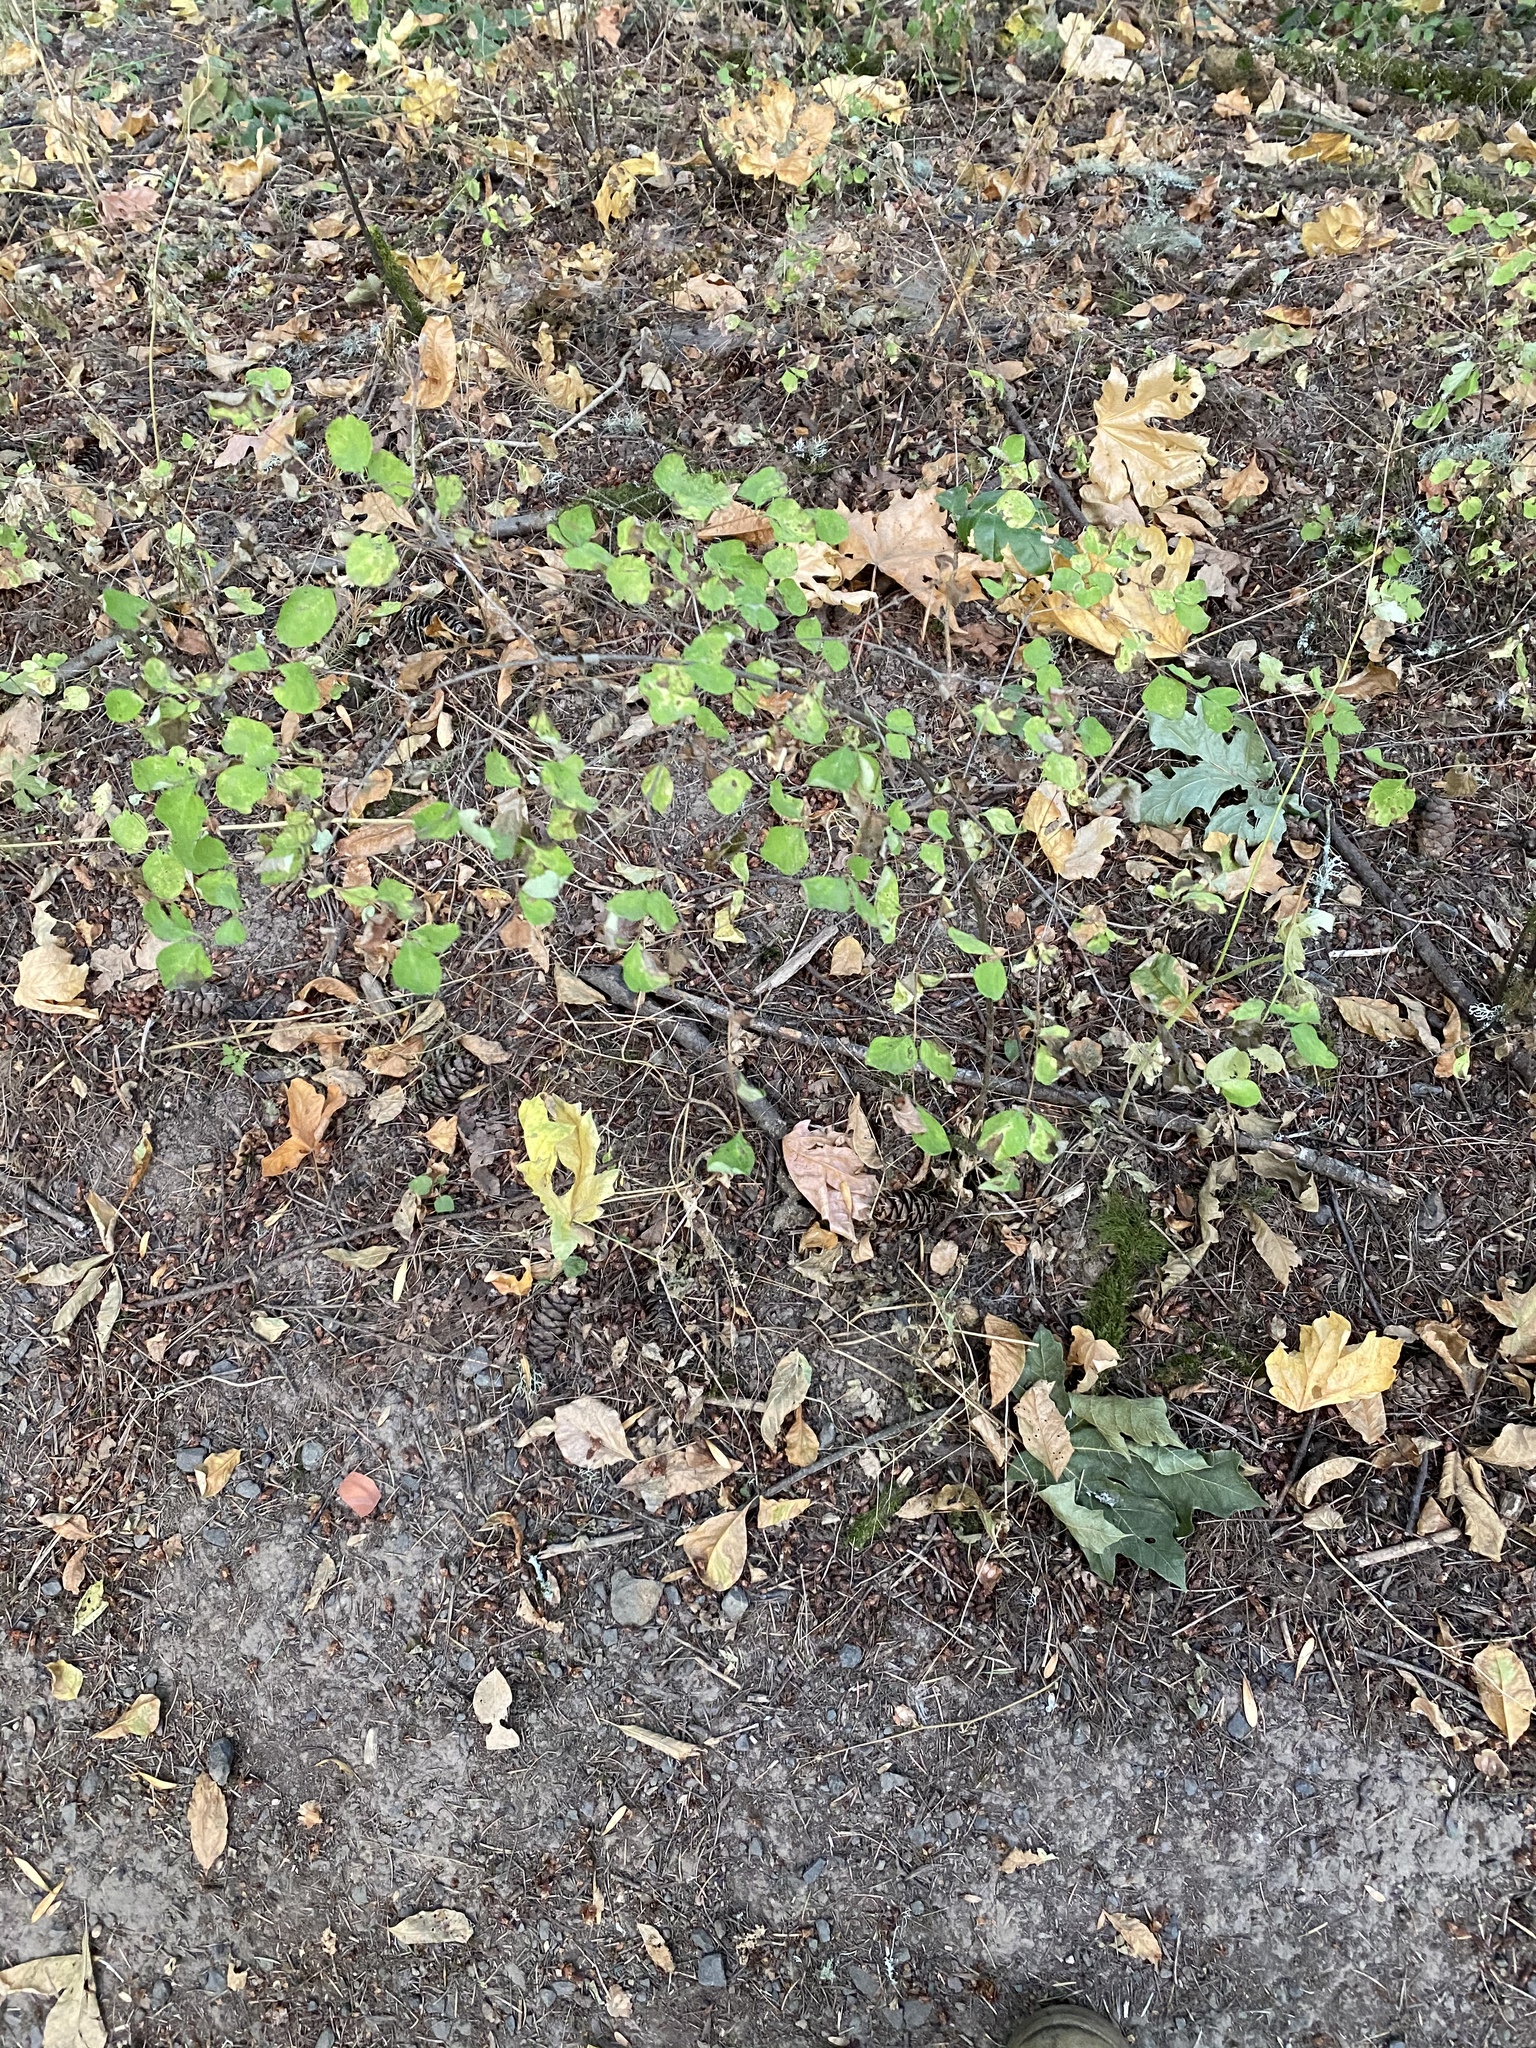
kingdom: Plantae
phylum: Tracheophyta
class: Magnoliopsida
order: Dipsacales
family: Caprifoliaceae
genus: Symphoricarpos
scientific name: Symphoricarpos albus
